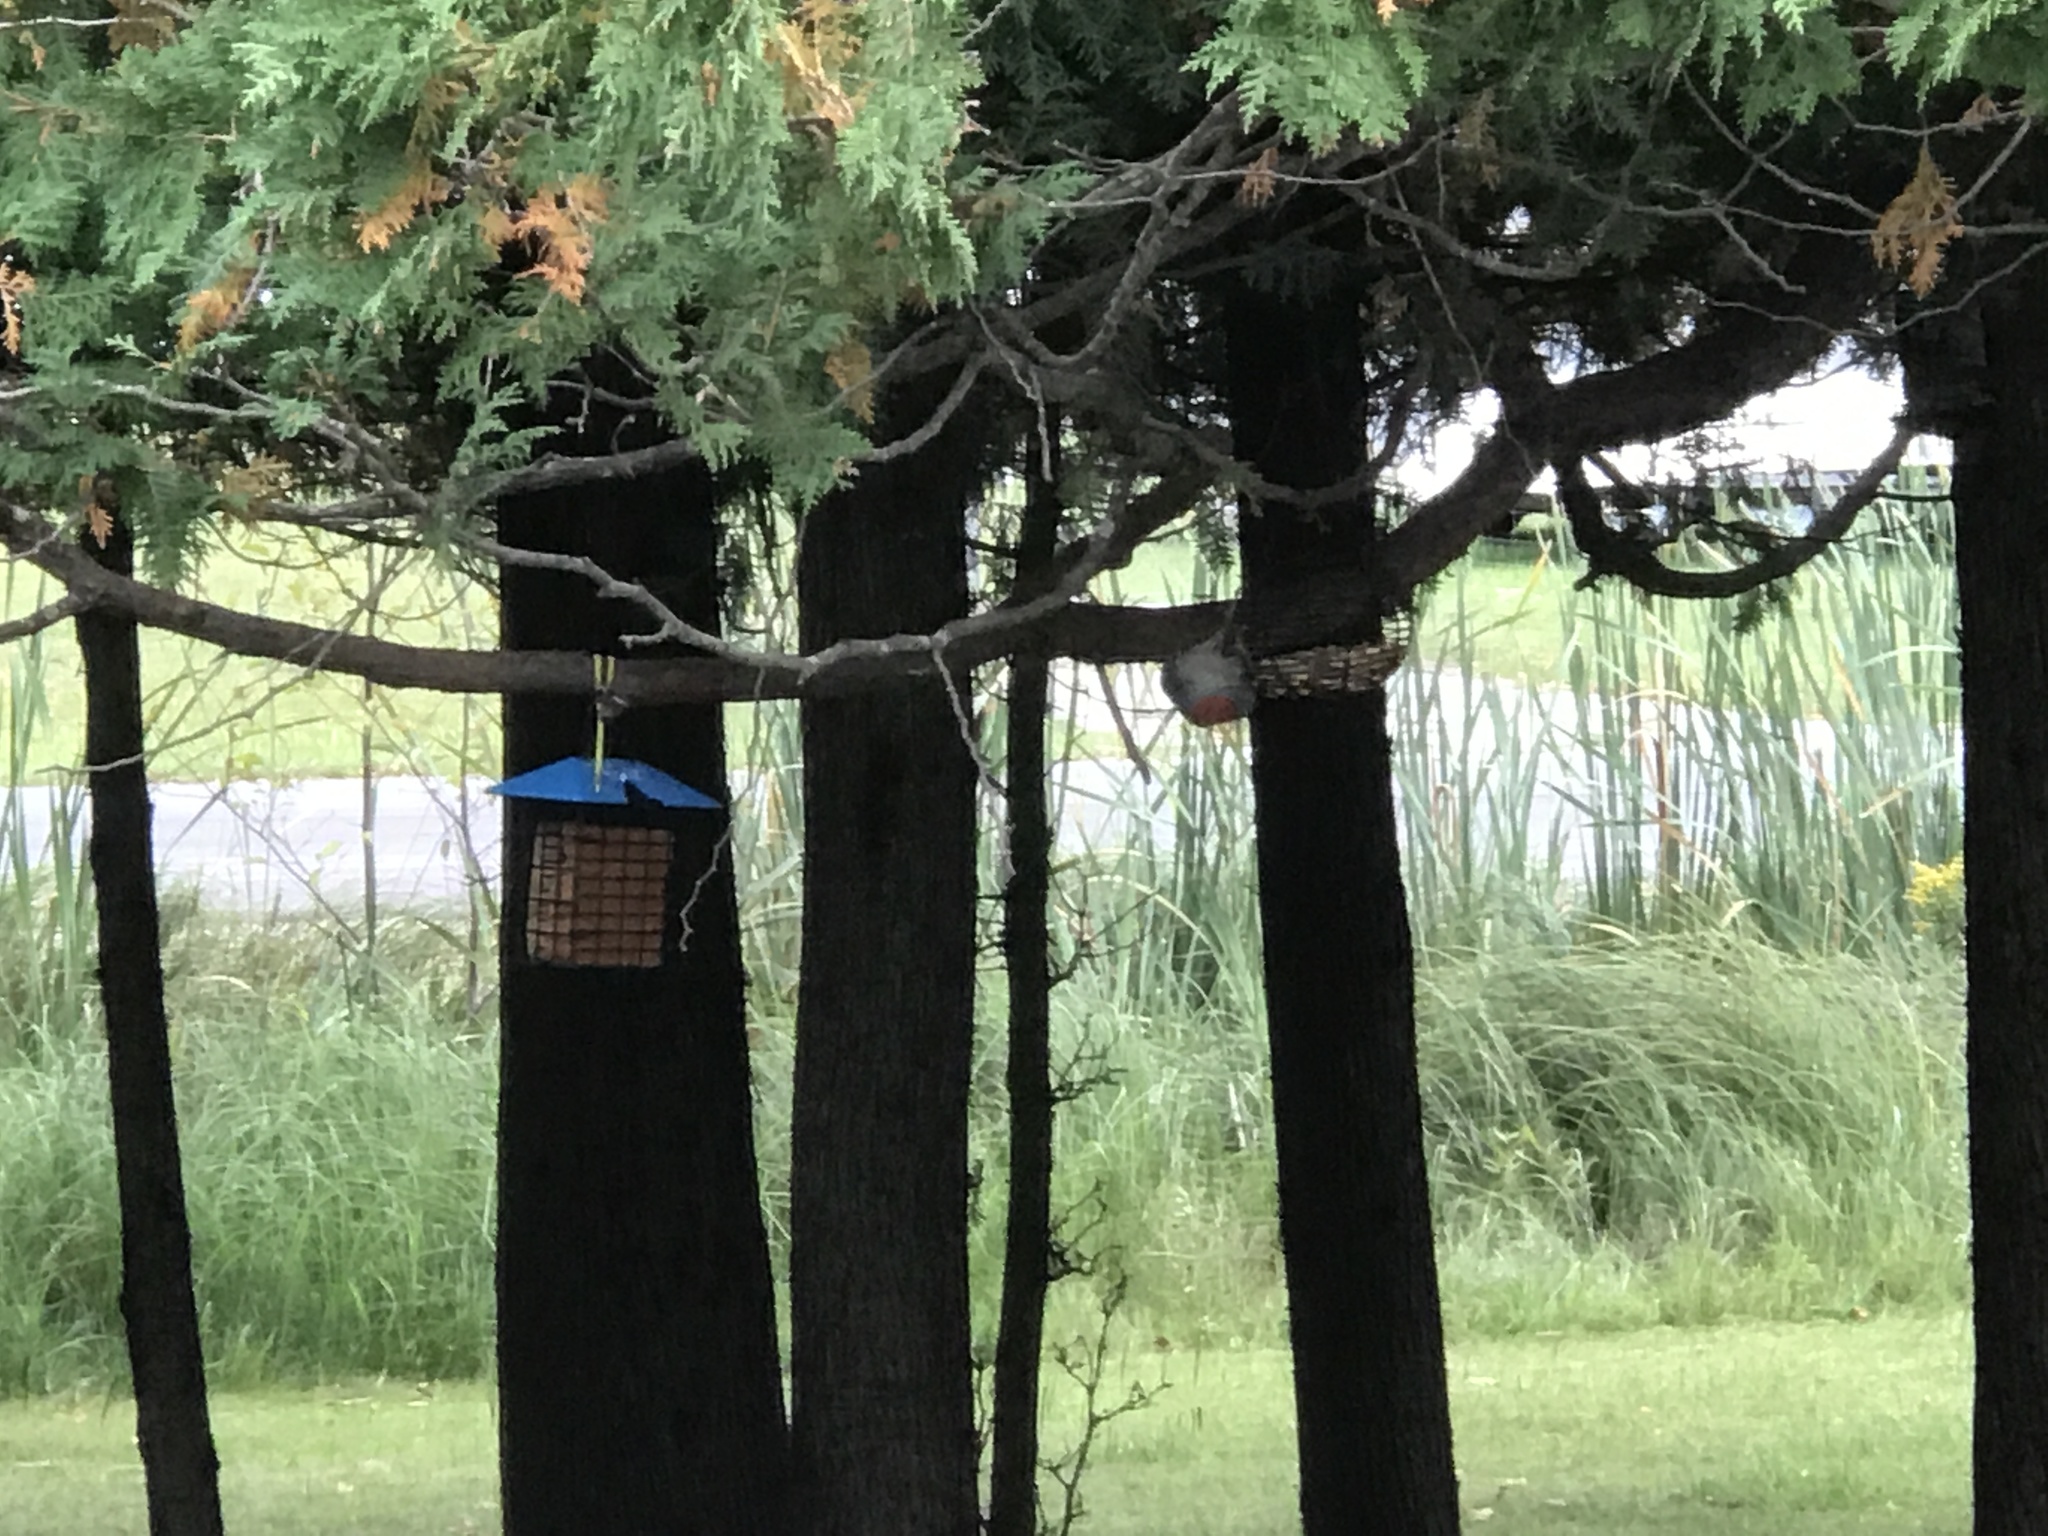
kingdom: Animalia
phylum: Chordata
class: Aves
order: Piciformes
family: Picidae
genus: Melanerpes
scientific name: Melanerpes carolinus
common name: Red-bellied woodpecker
